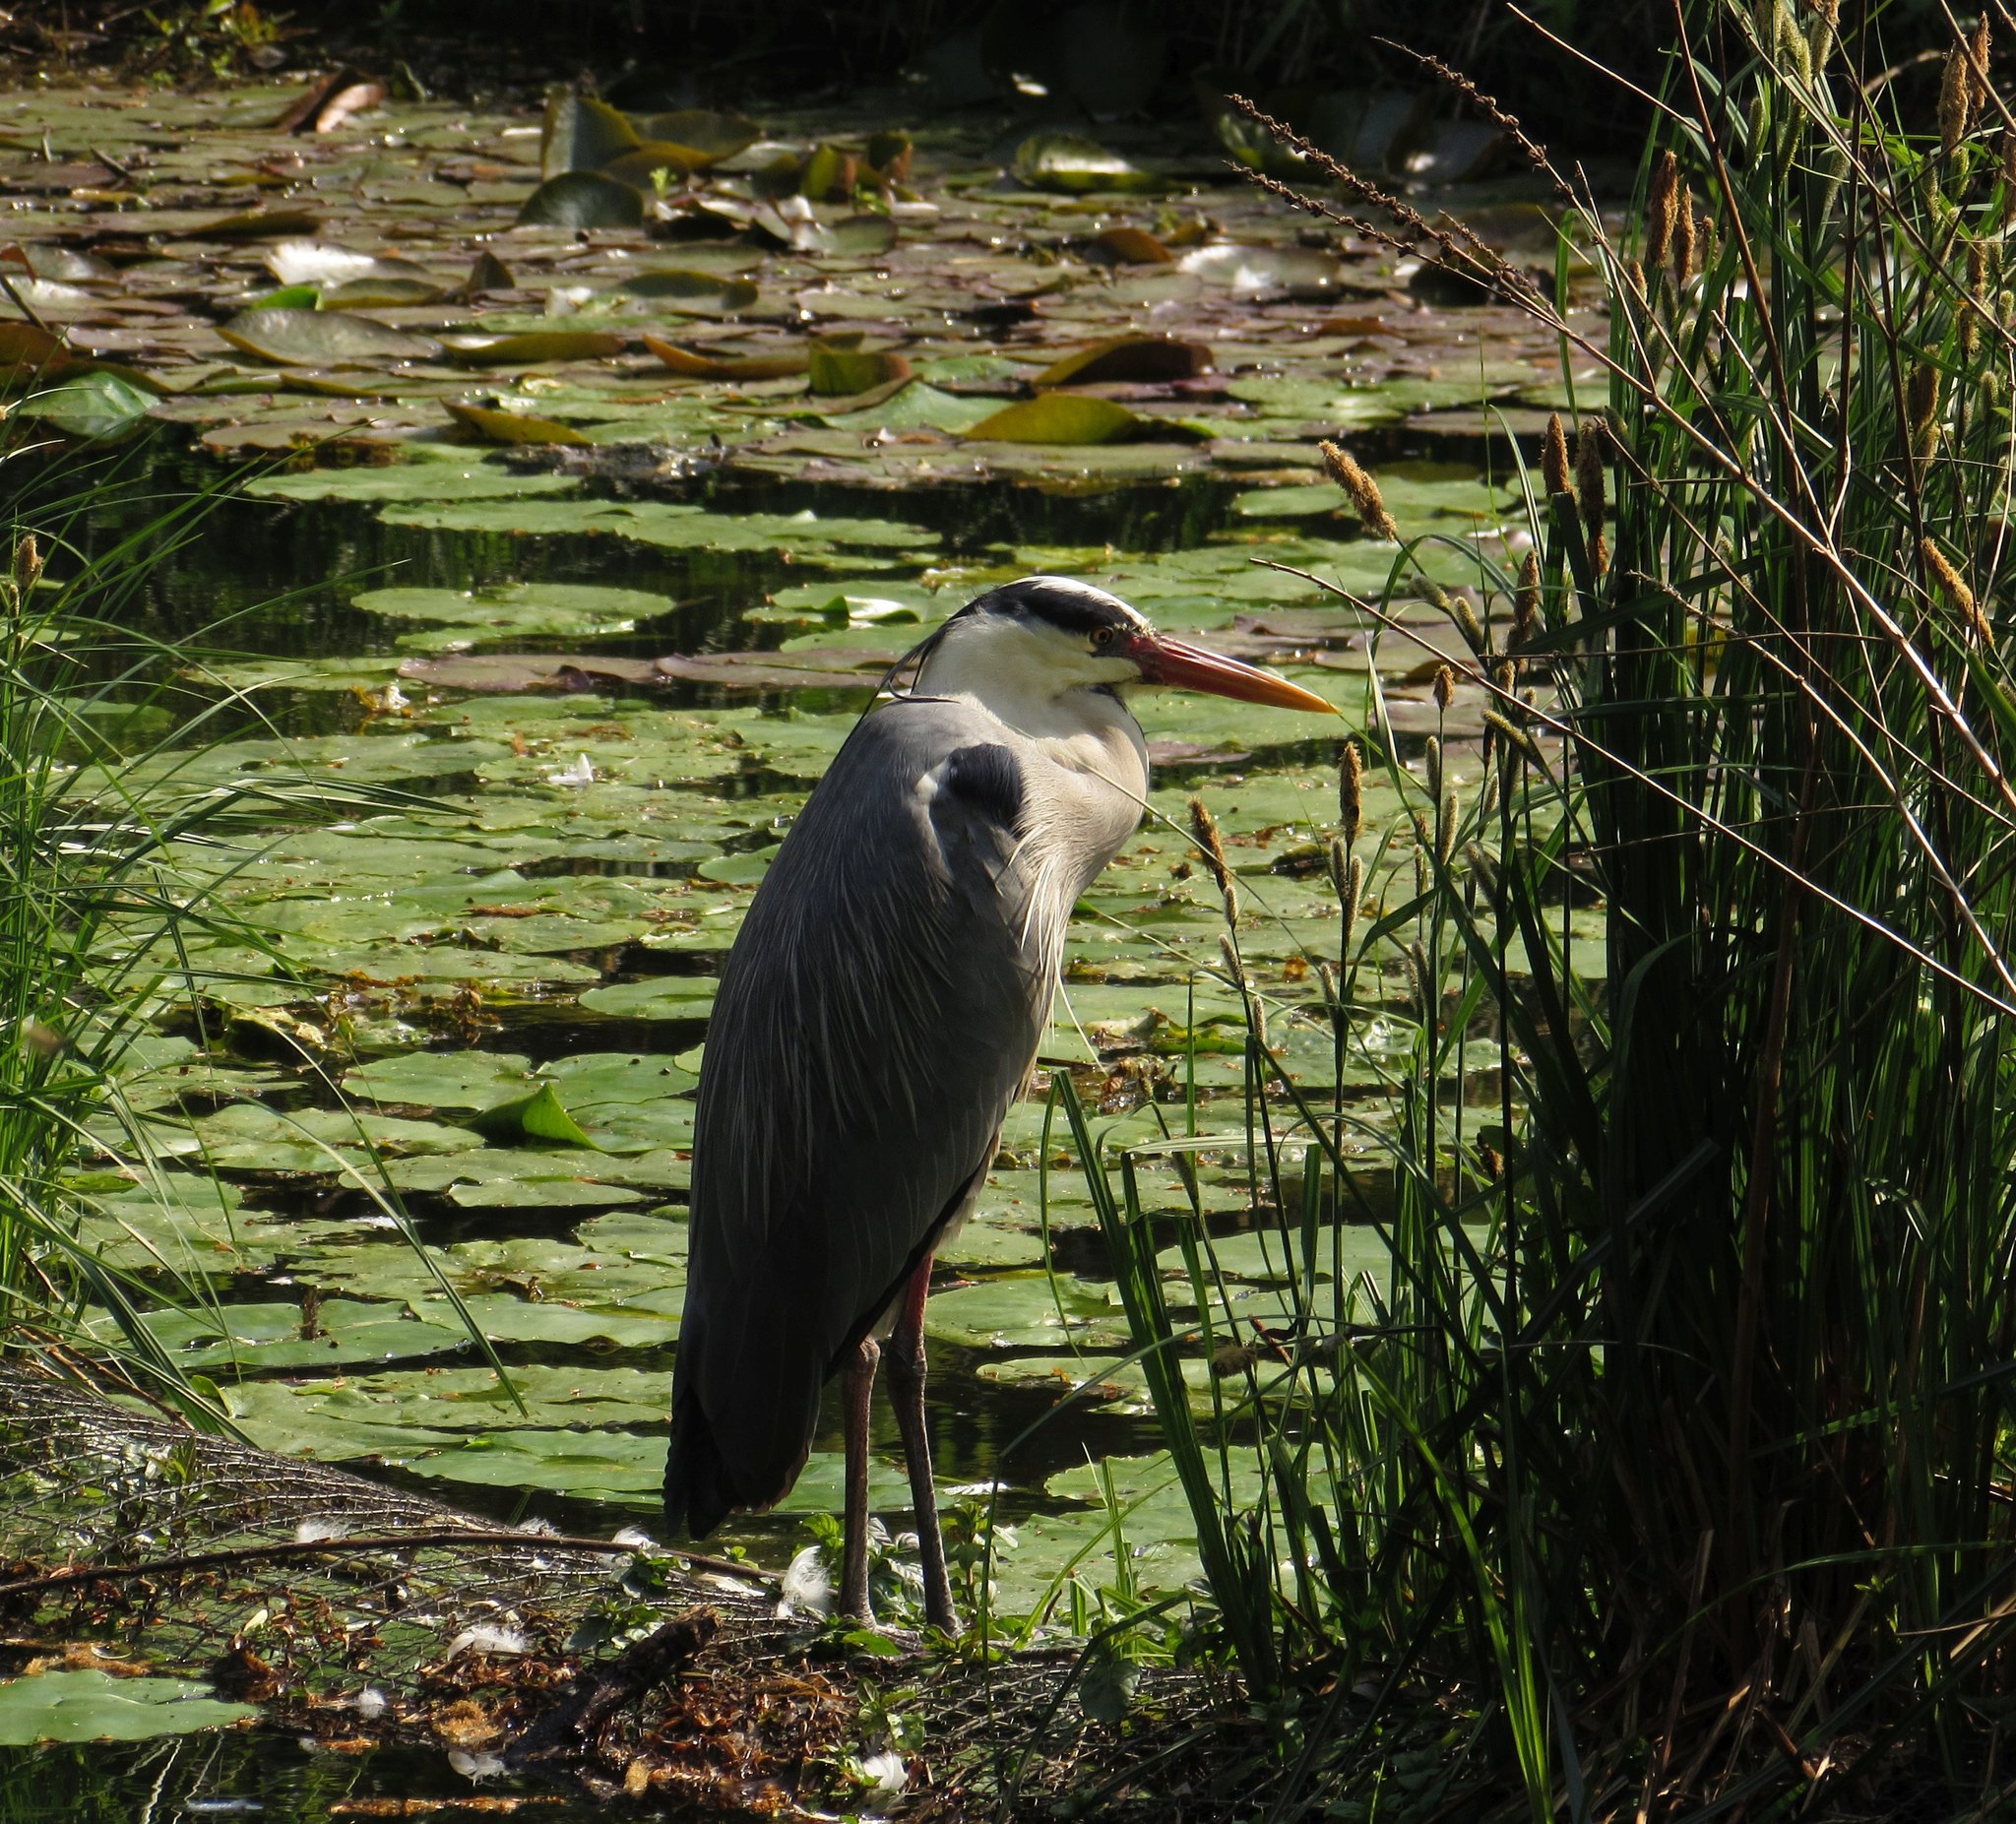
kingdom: Animalia
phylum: Chordata
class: Aves
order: Pelecaniformes
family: Ardeidae
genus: Ardea
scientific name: Ardea cinerea
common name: Grey heron
